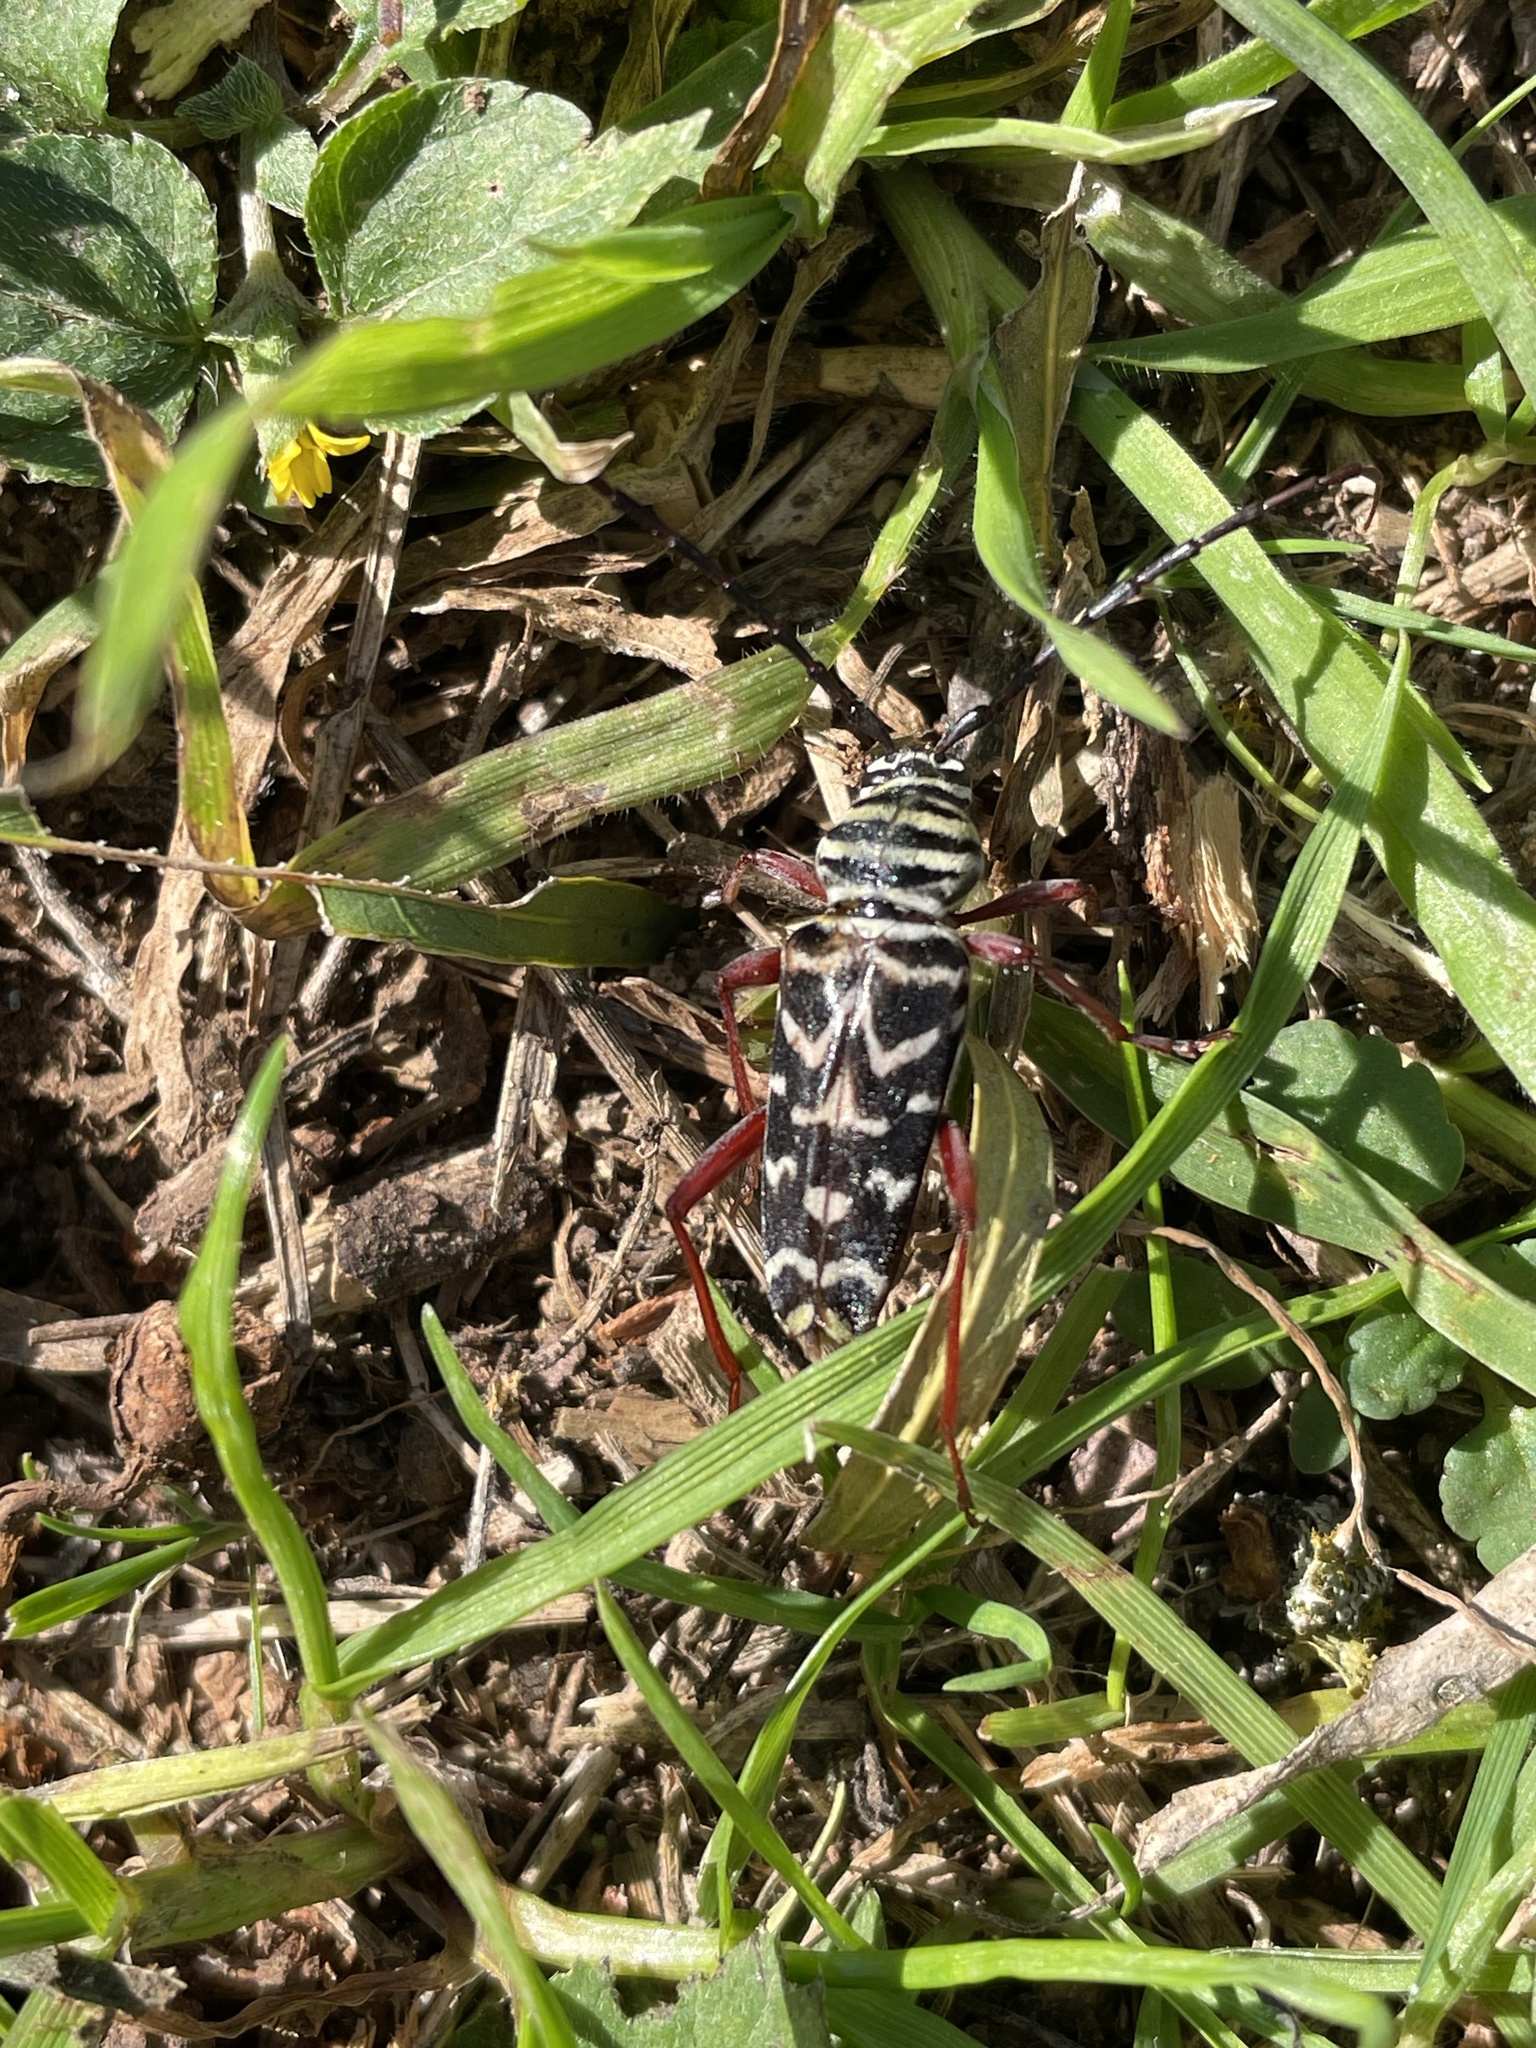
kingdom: Animalia
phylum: Arthropoda
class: Insecta
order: Coleoptera
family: Cerambycidae
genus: Placosternus
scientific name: Placosternus difficilis
